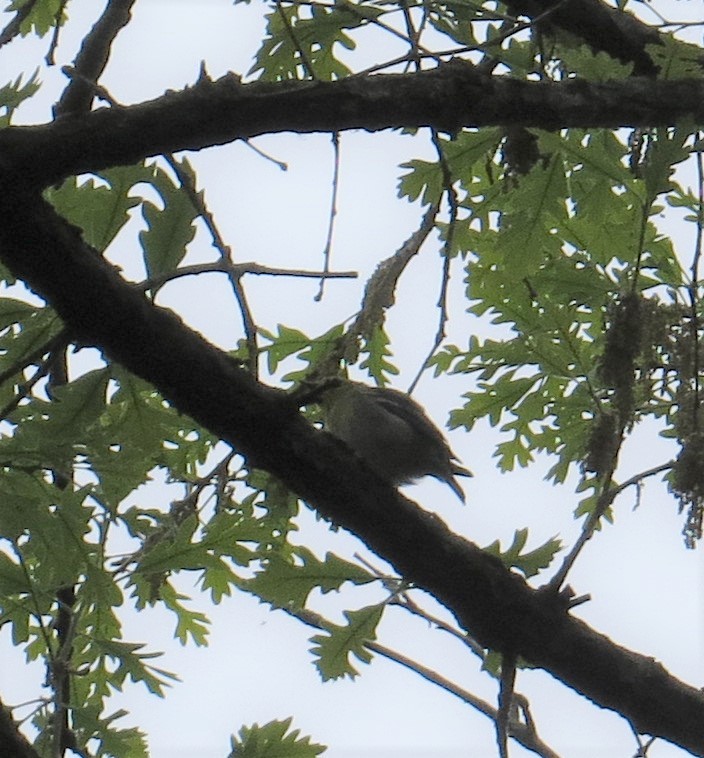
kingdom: Animalia
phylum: Chordata
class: Aves
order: Passeriformes
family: Vireonidae
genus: Vireo
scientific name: Vireo flavifrons
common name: Yellow-throated vireo
